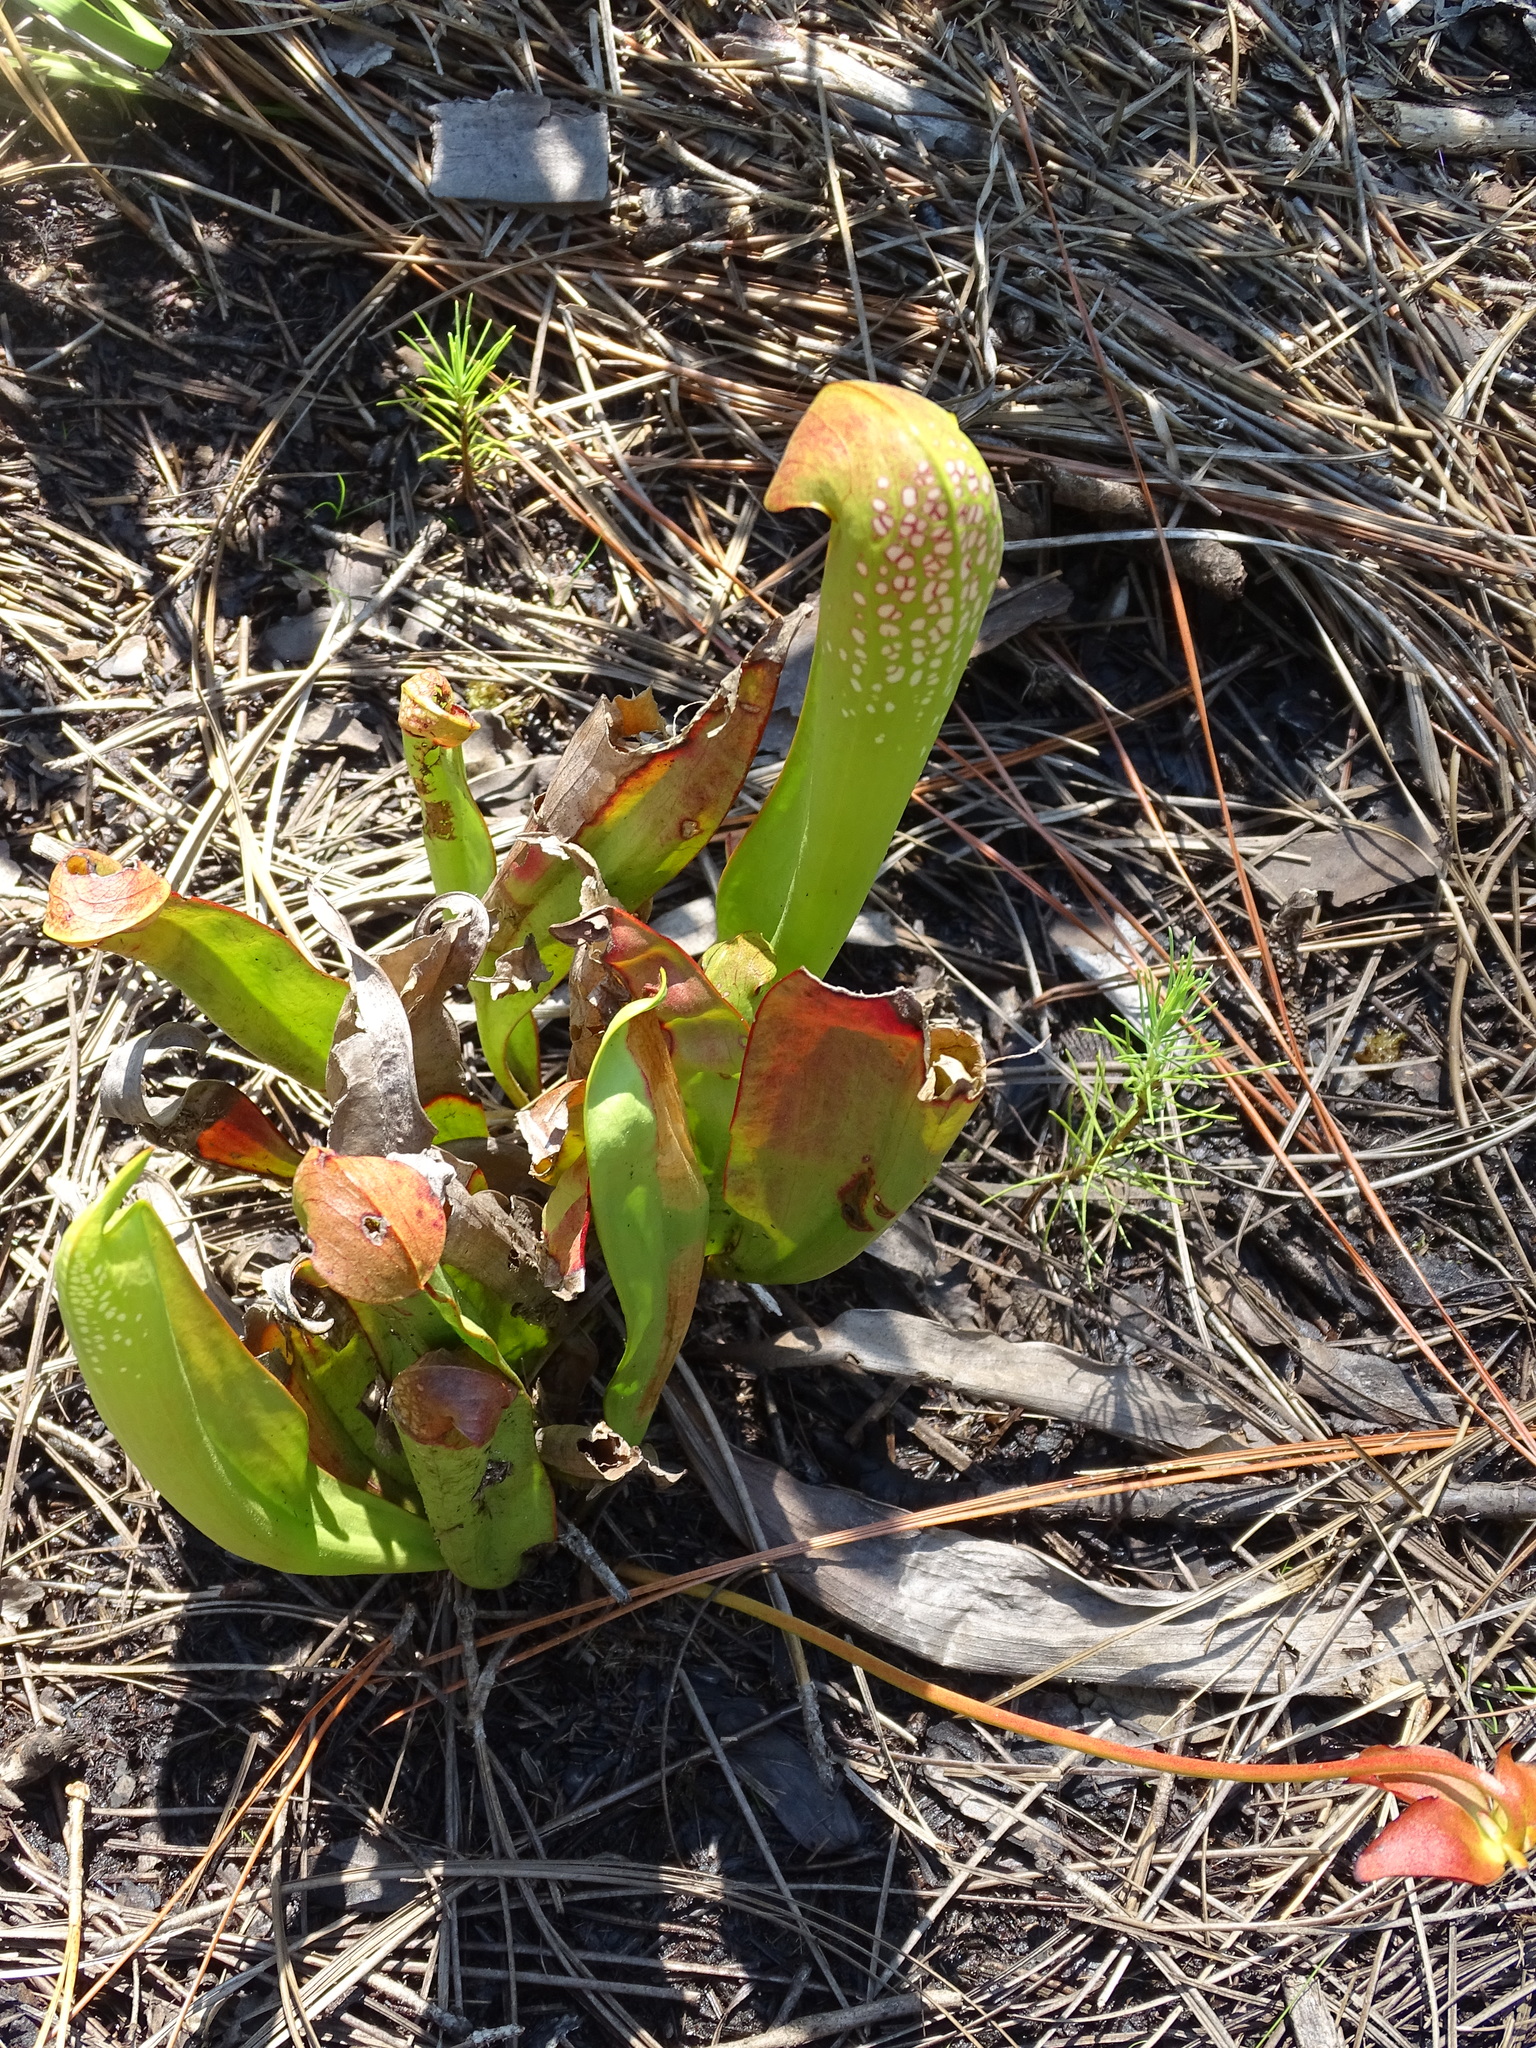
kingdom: Plantae
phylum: Tracheophyta
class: Magnoliopsida
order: Ericales
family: Sarraceniaceae
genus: Sarracenia
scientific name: Sarracenia minor
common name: Rainhat-trumpet
